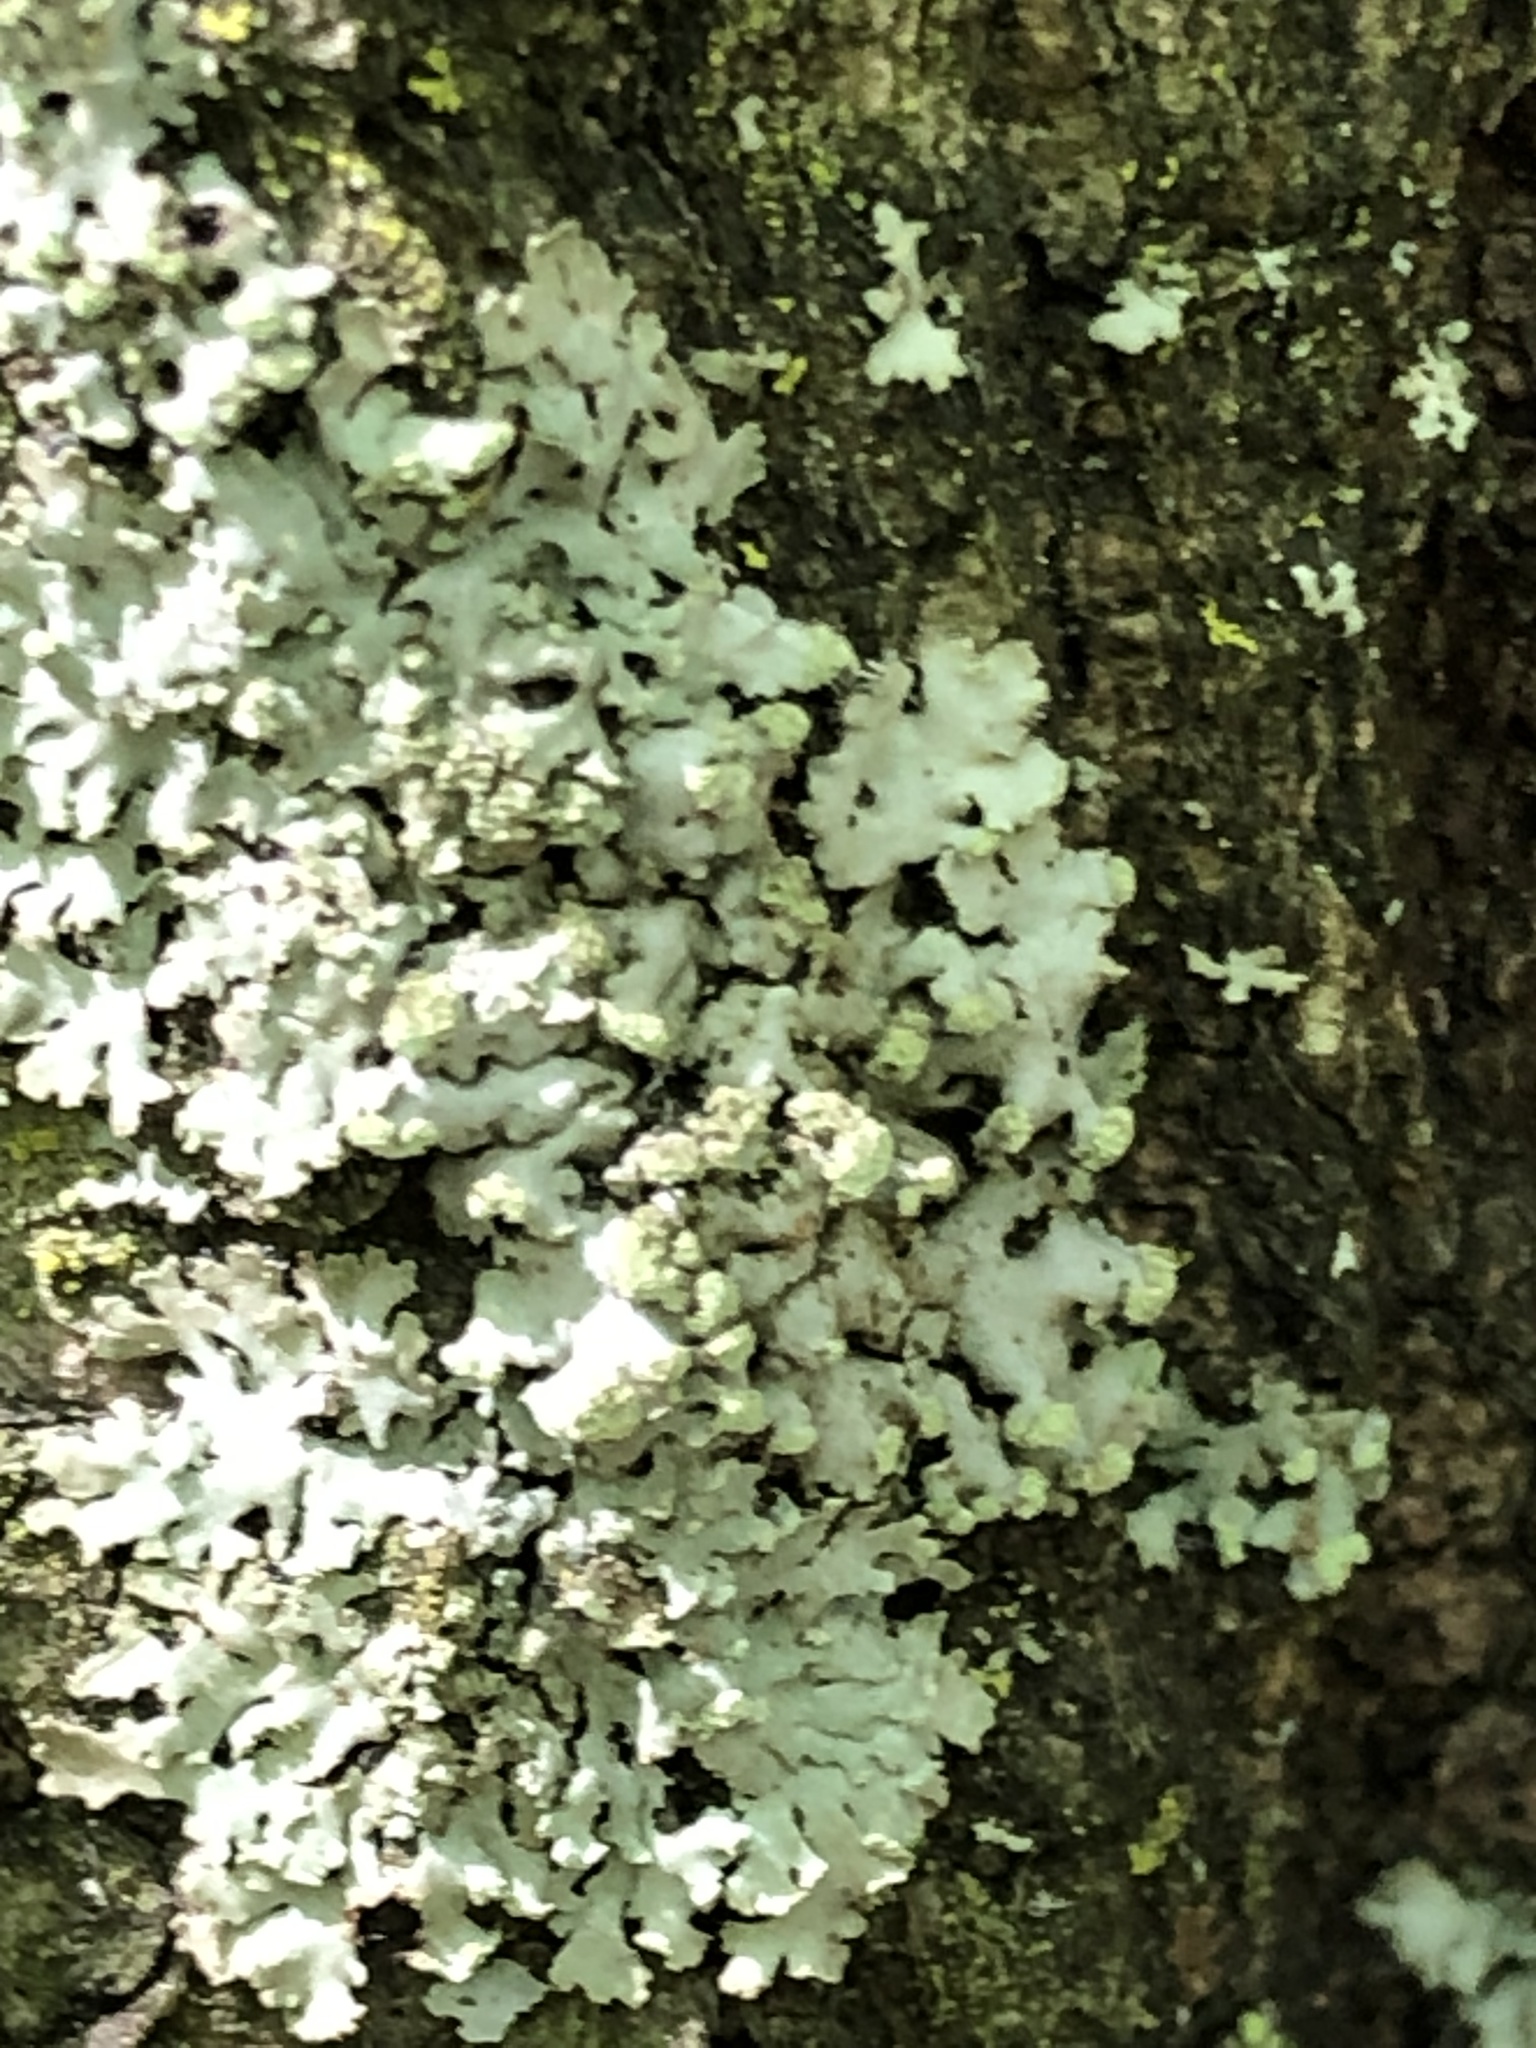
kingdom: Fungi
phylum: Ascomycota
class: Lecanoromycetes
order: Caliciales
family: Physciaceae
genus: Physciella
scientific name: Physciella melanchra
